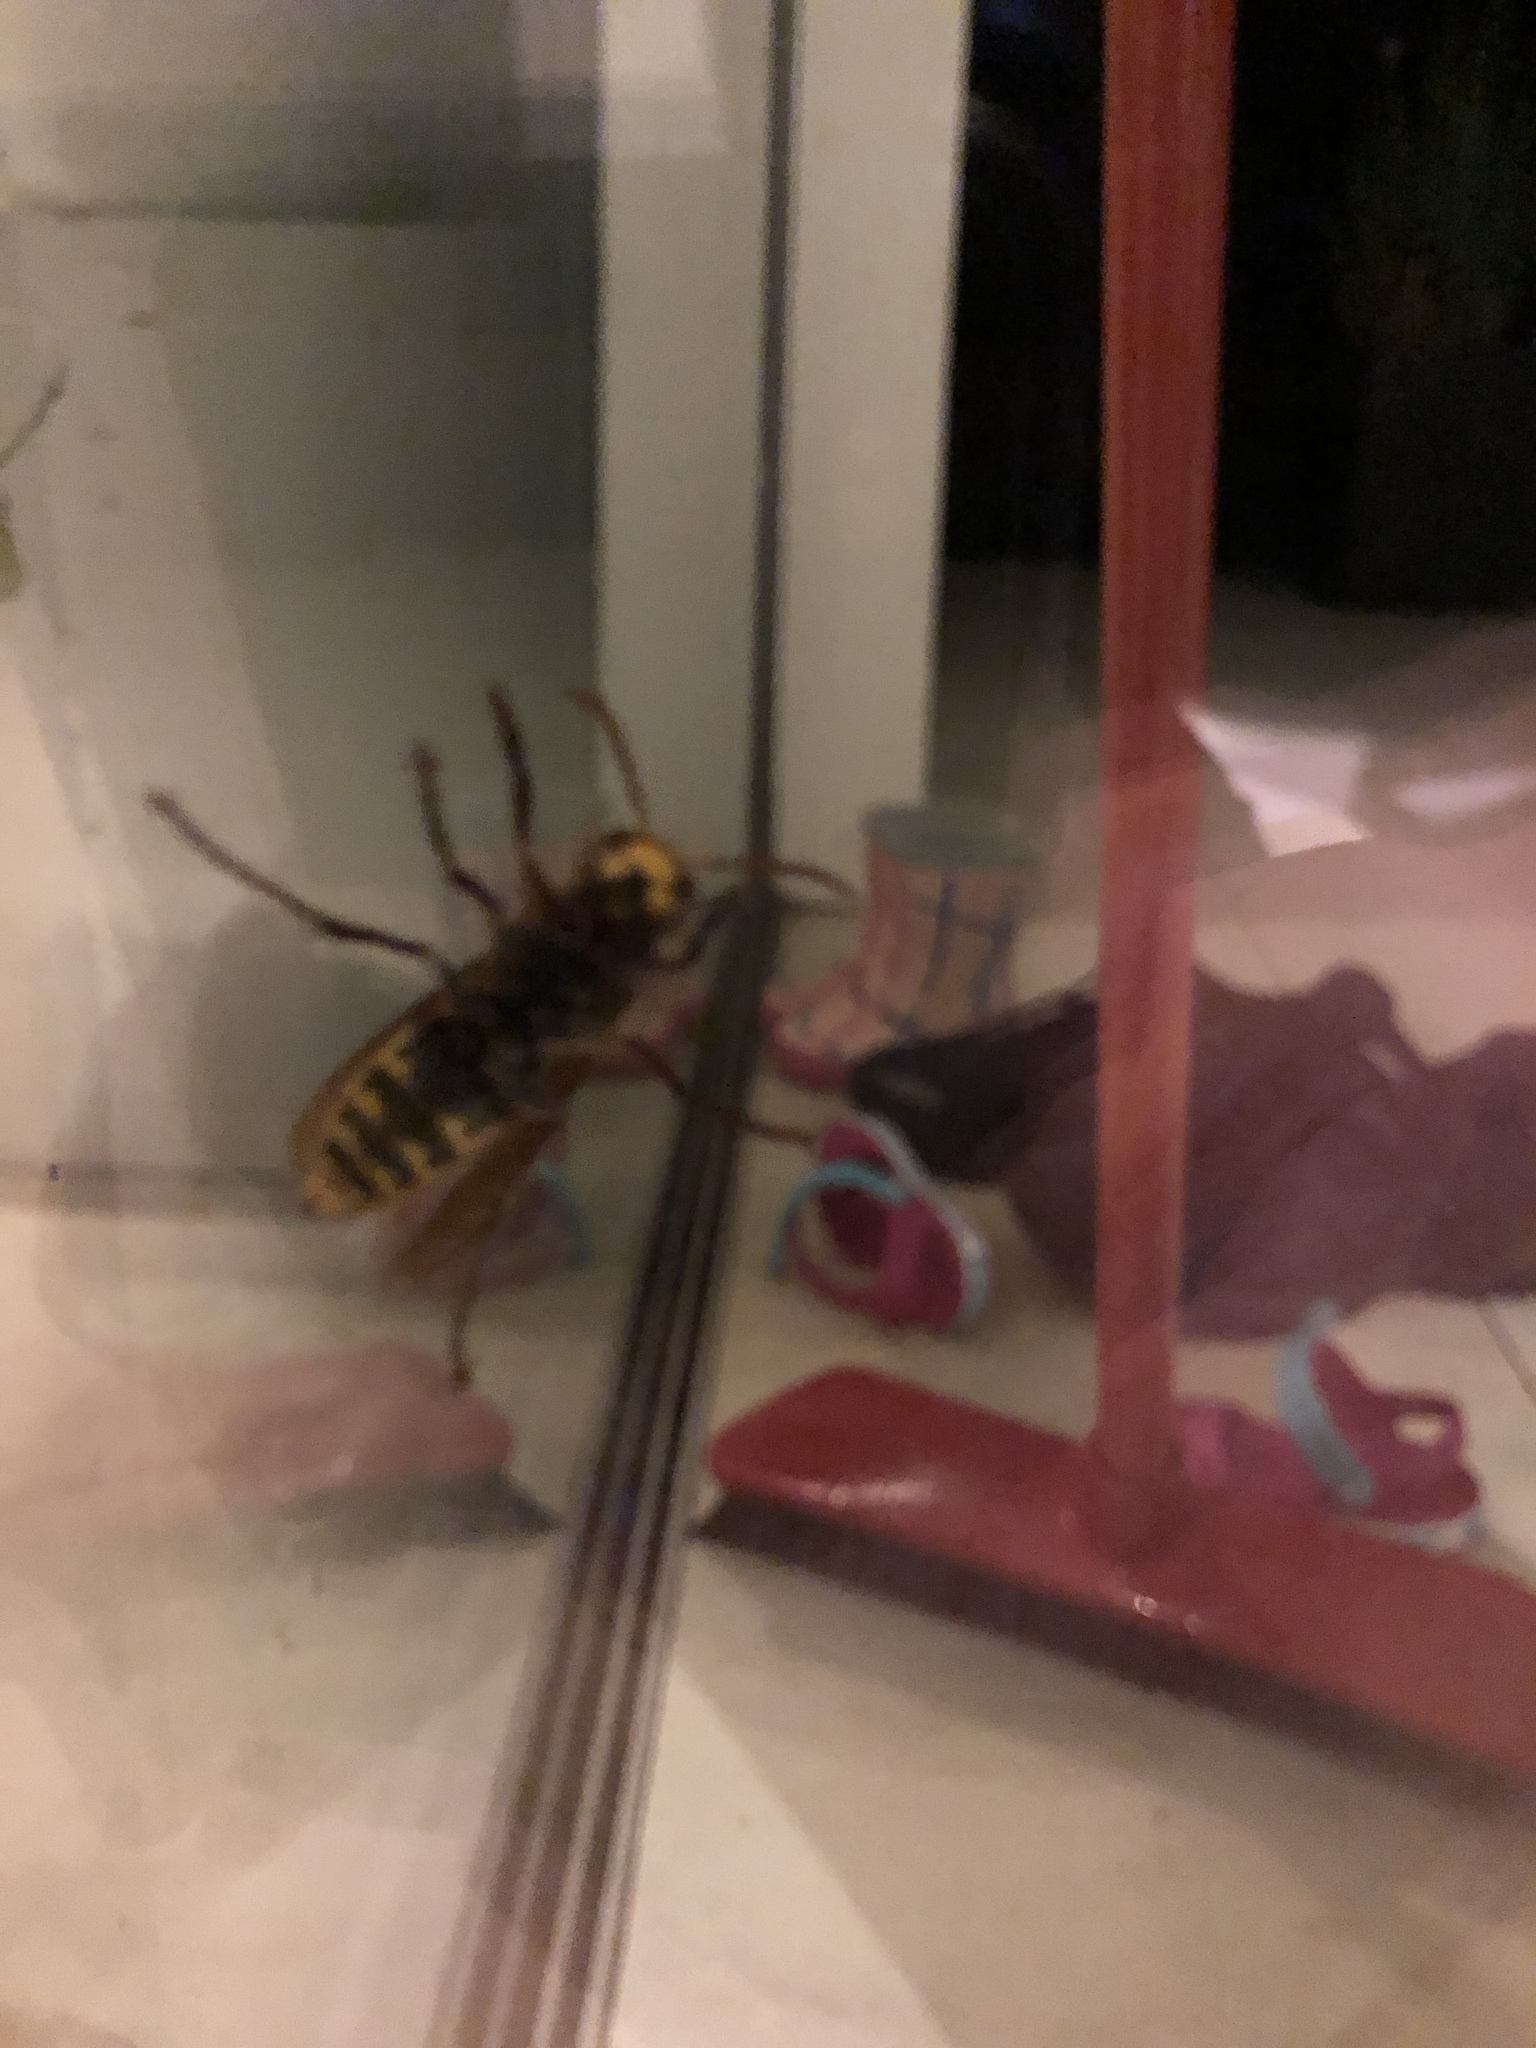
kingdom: Animalia
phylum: Arthropoda
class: Insecta
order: Hymenoptera
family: Vespidae
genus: Vespa
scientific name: Vespa crabro
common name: Hornet
